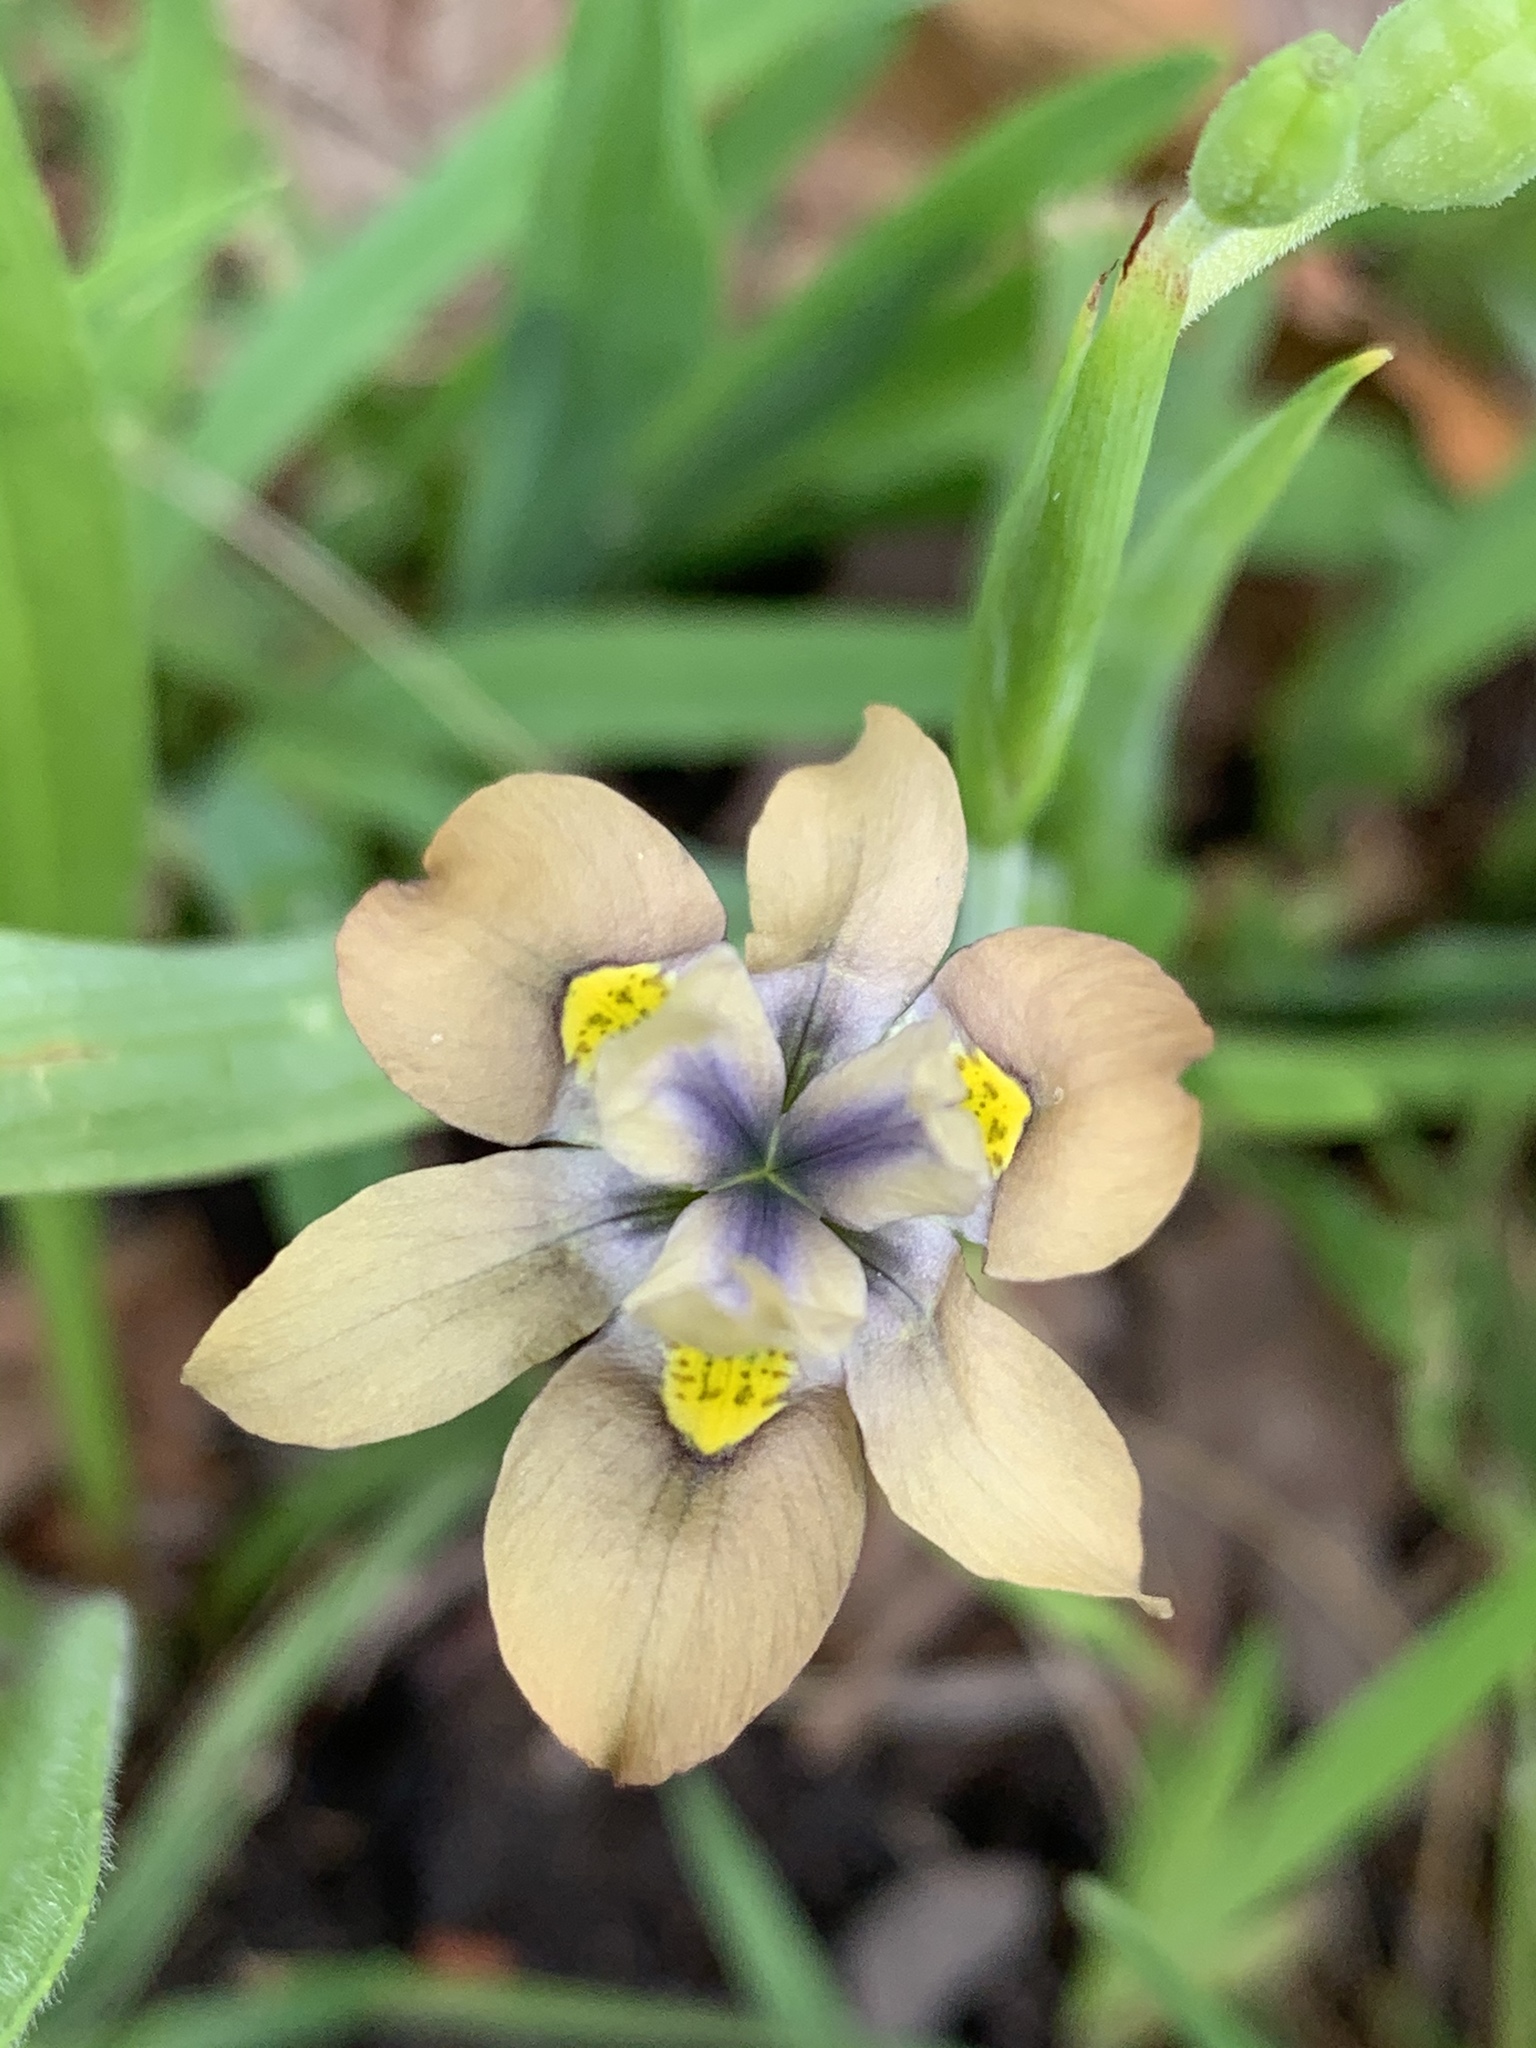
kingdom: Plantae
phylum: Tracheophyta
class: Liliopsida
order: Asparagales
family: Iridaceae
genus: Moraea
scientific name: Moraea vegeta
